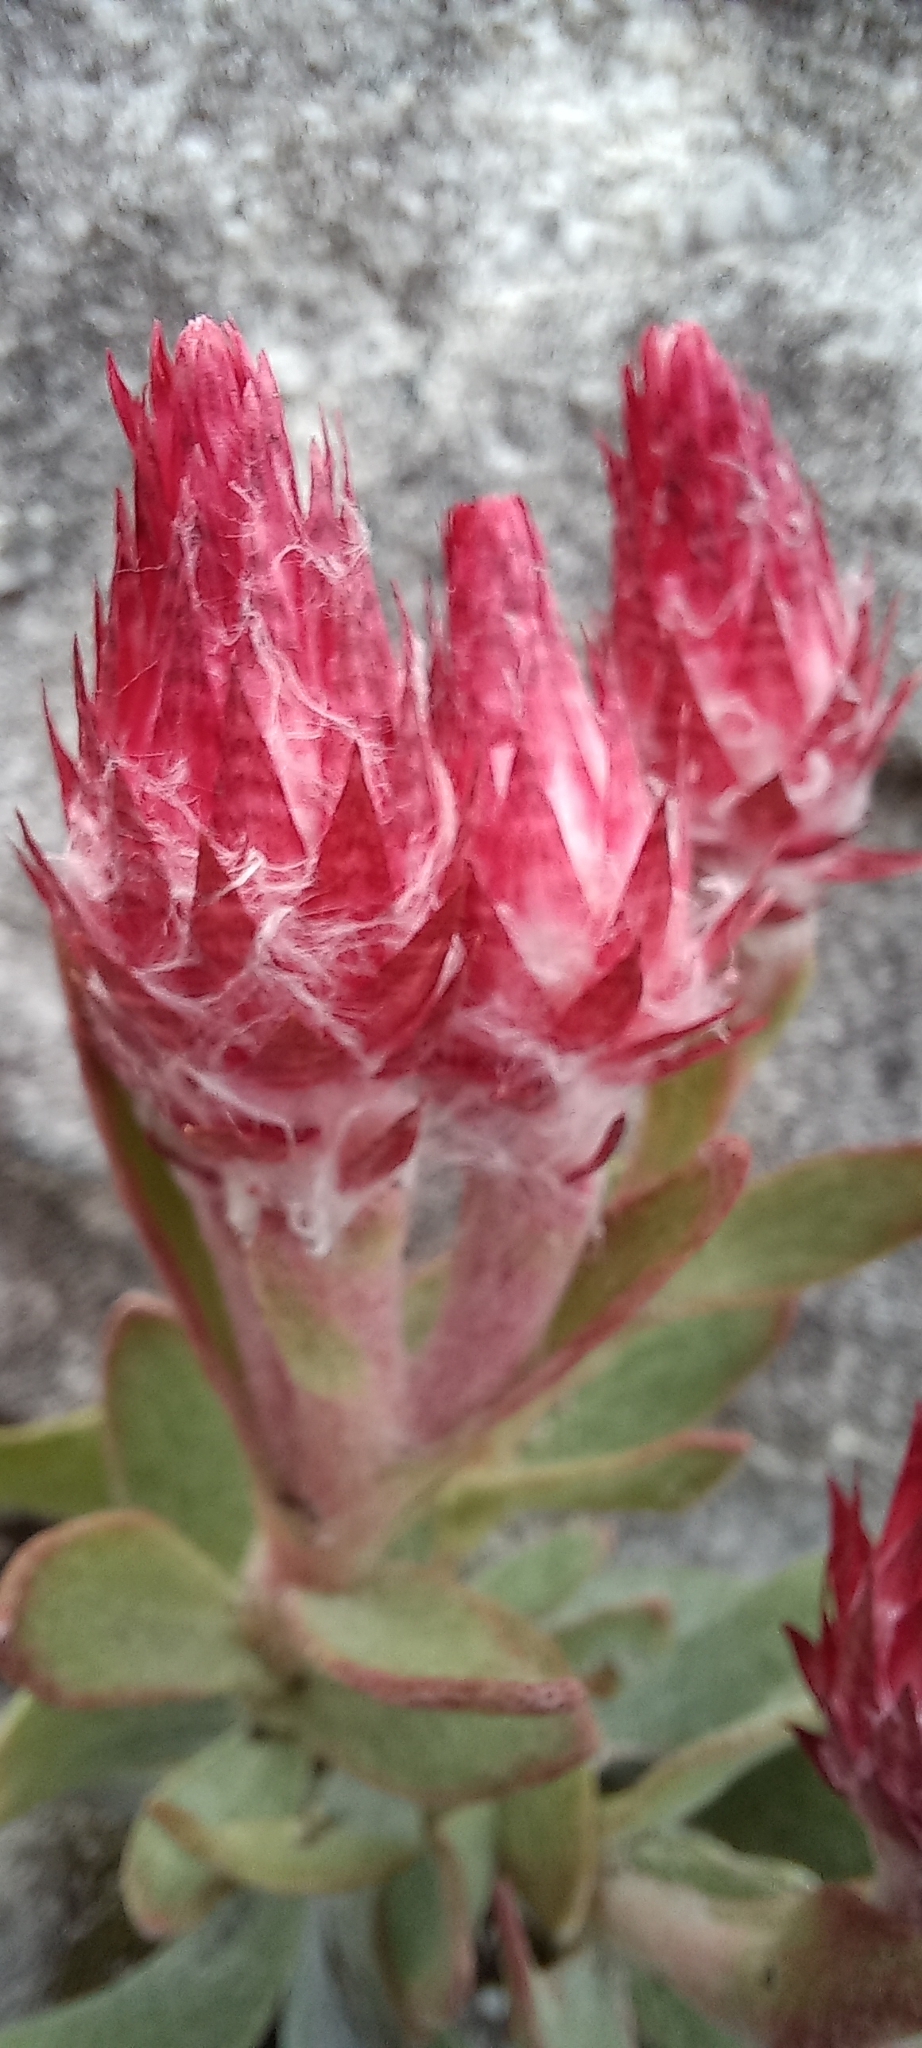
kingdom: Plantae
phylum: Tracheophyta
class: Magnoliopsida
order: Asterales
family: Asteraceae
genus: Syncarpha
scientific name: Syncarpha zeyheri
